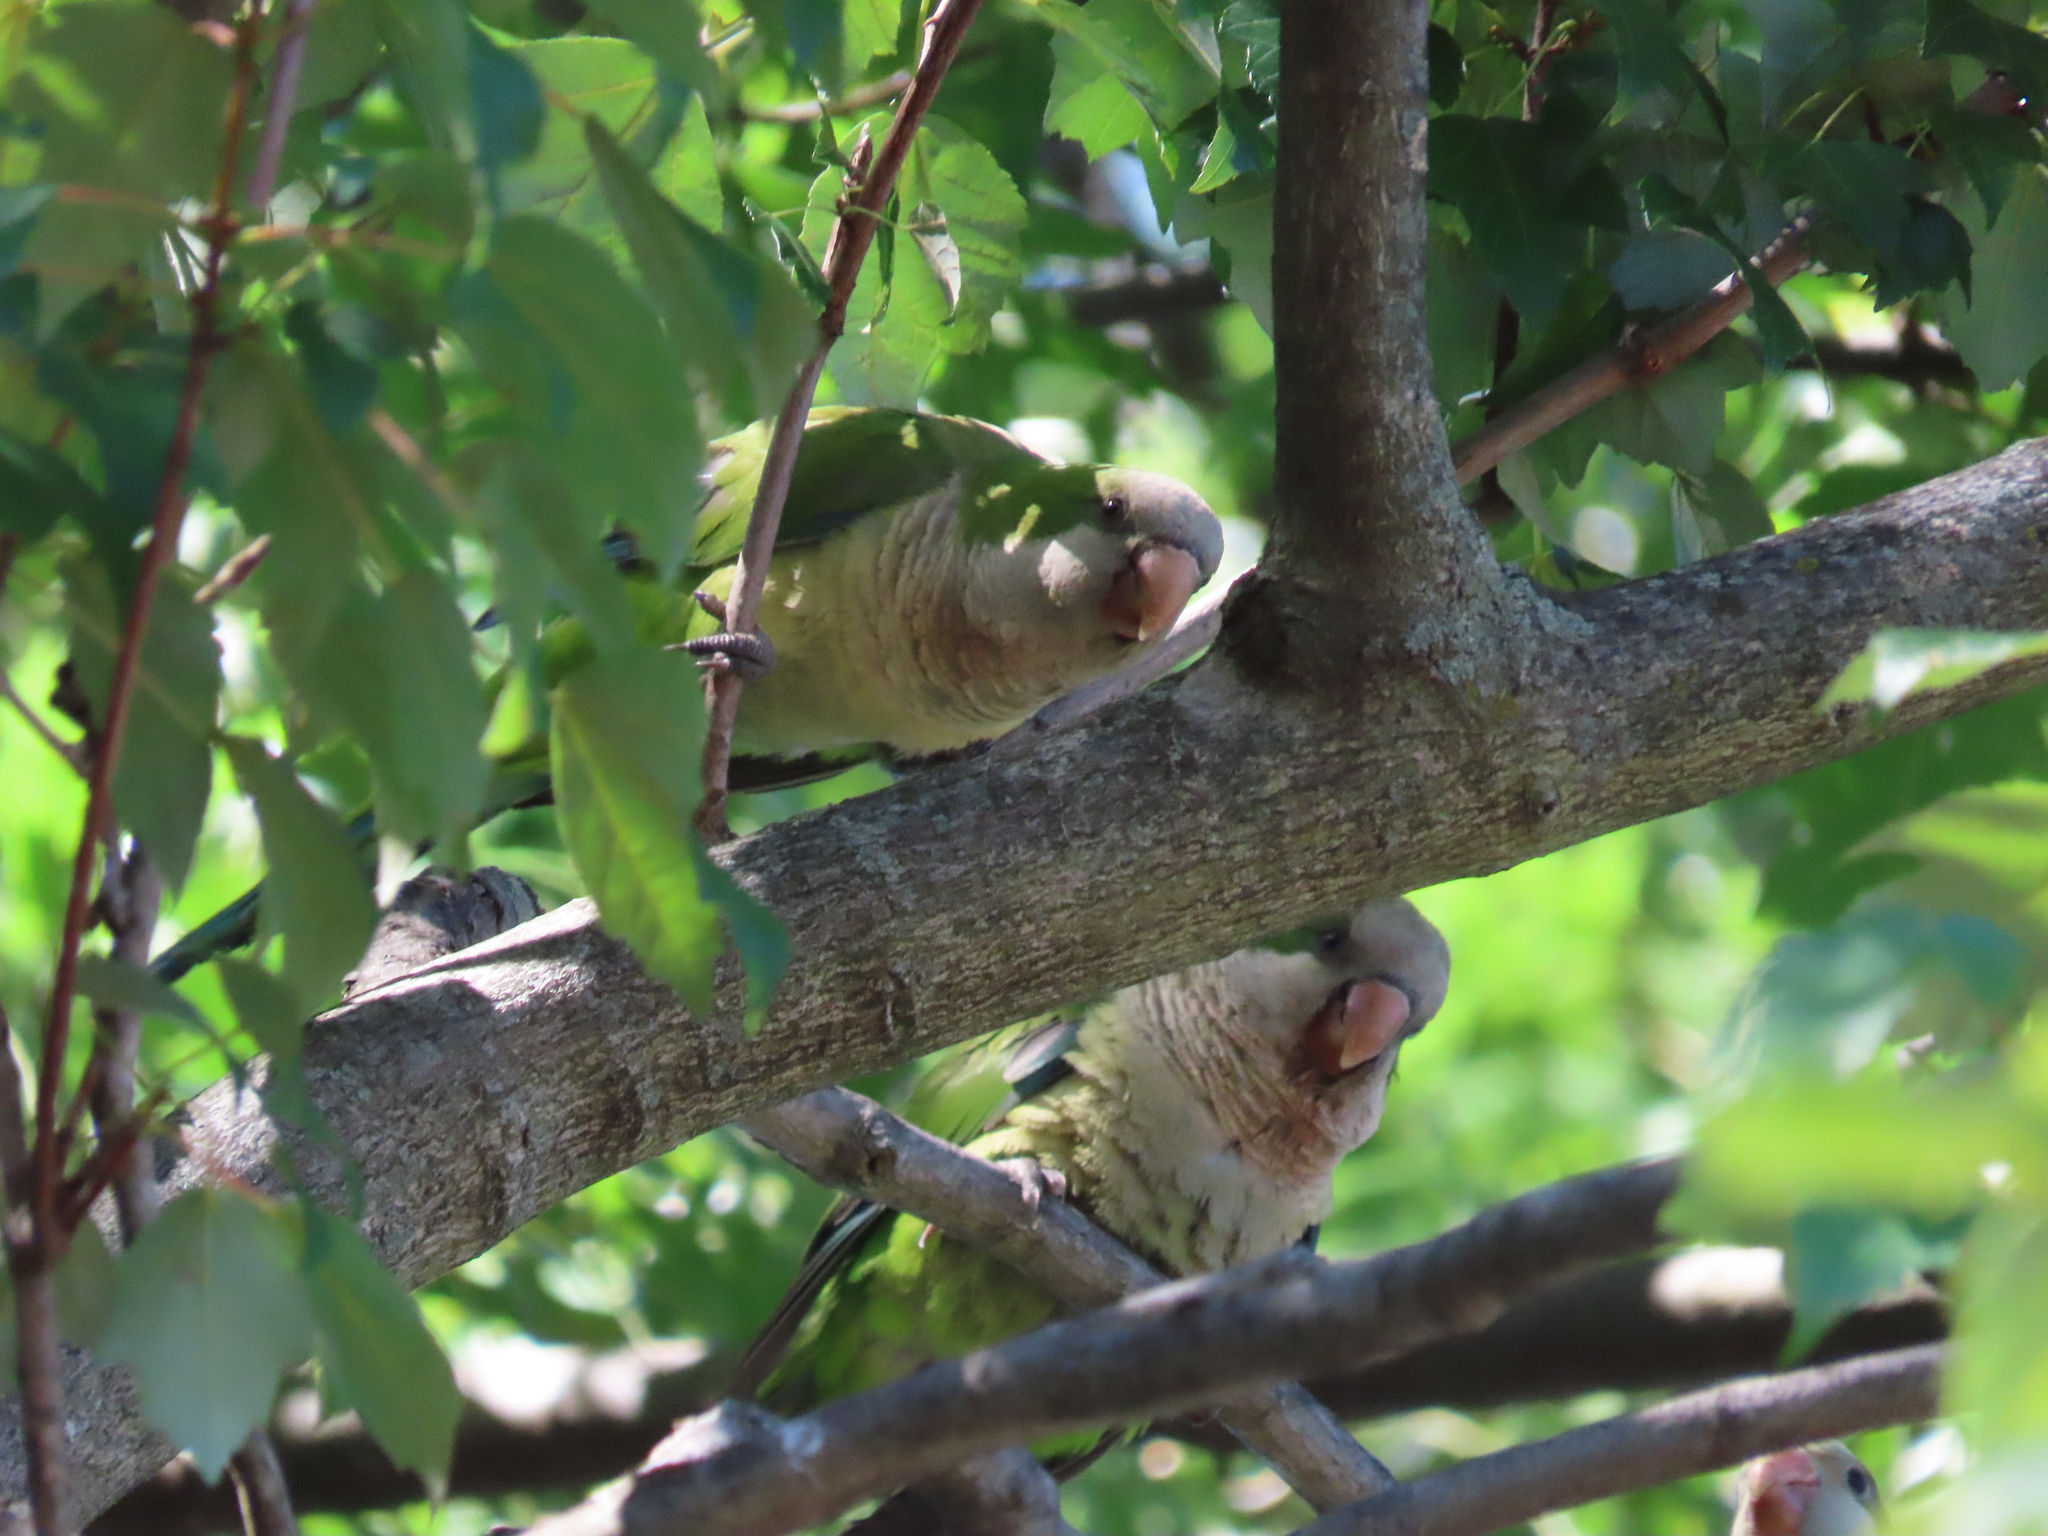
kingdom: Animalia
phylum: Chordata
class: Aves
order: Psittaciformes
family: Psittacidae
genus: Myiopsitta
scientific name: Myiopsitta monachus
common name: Monk parakeet
